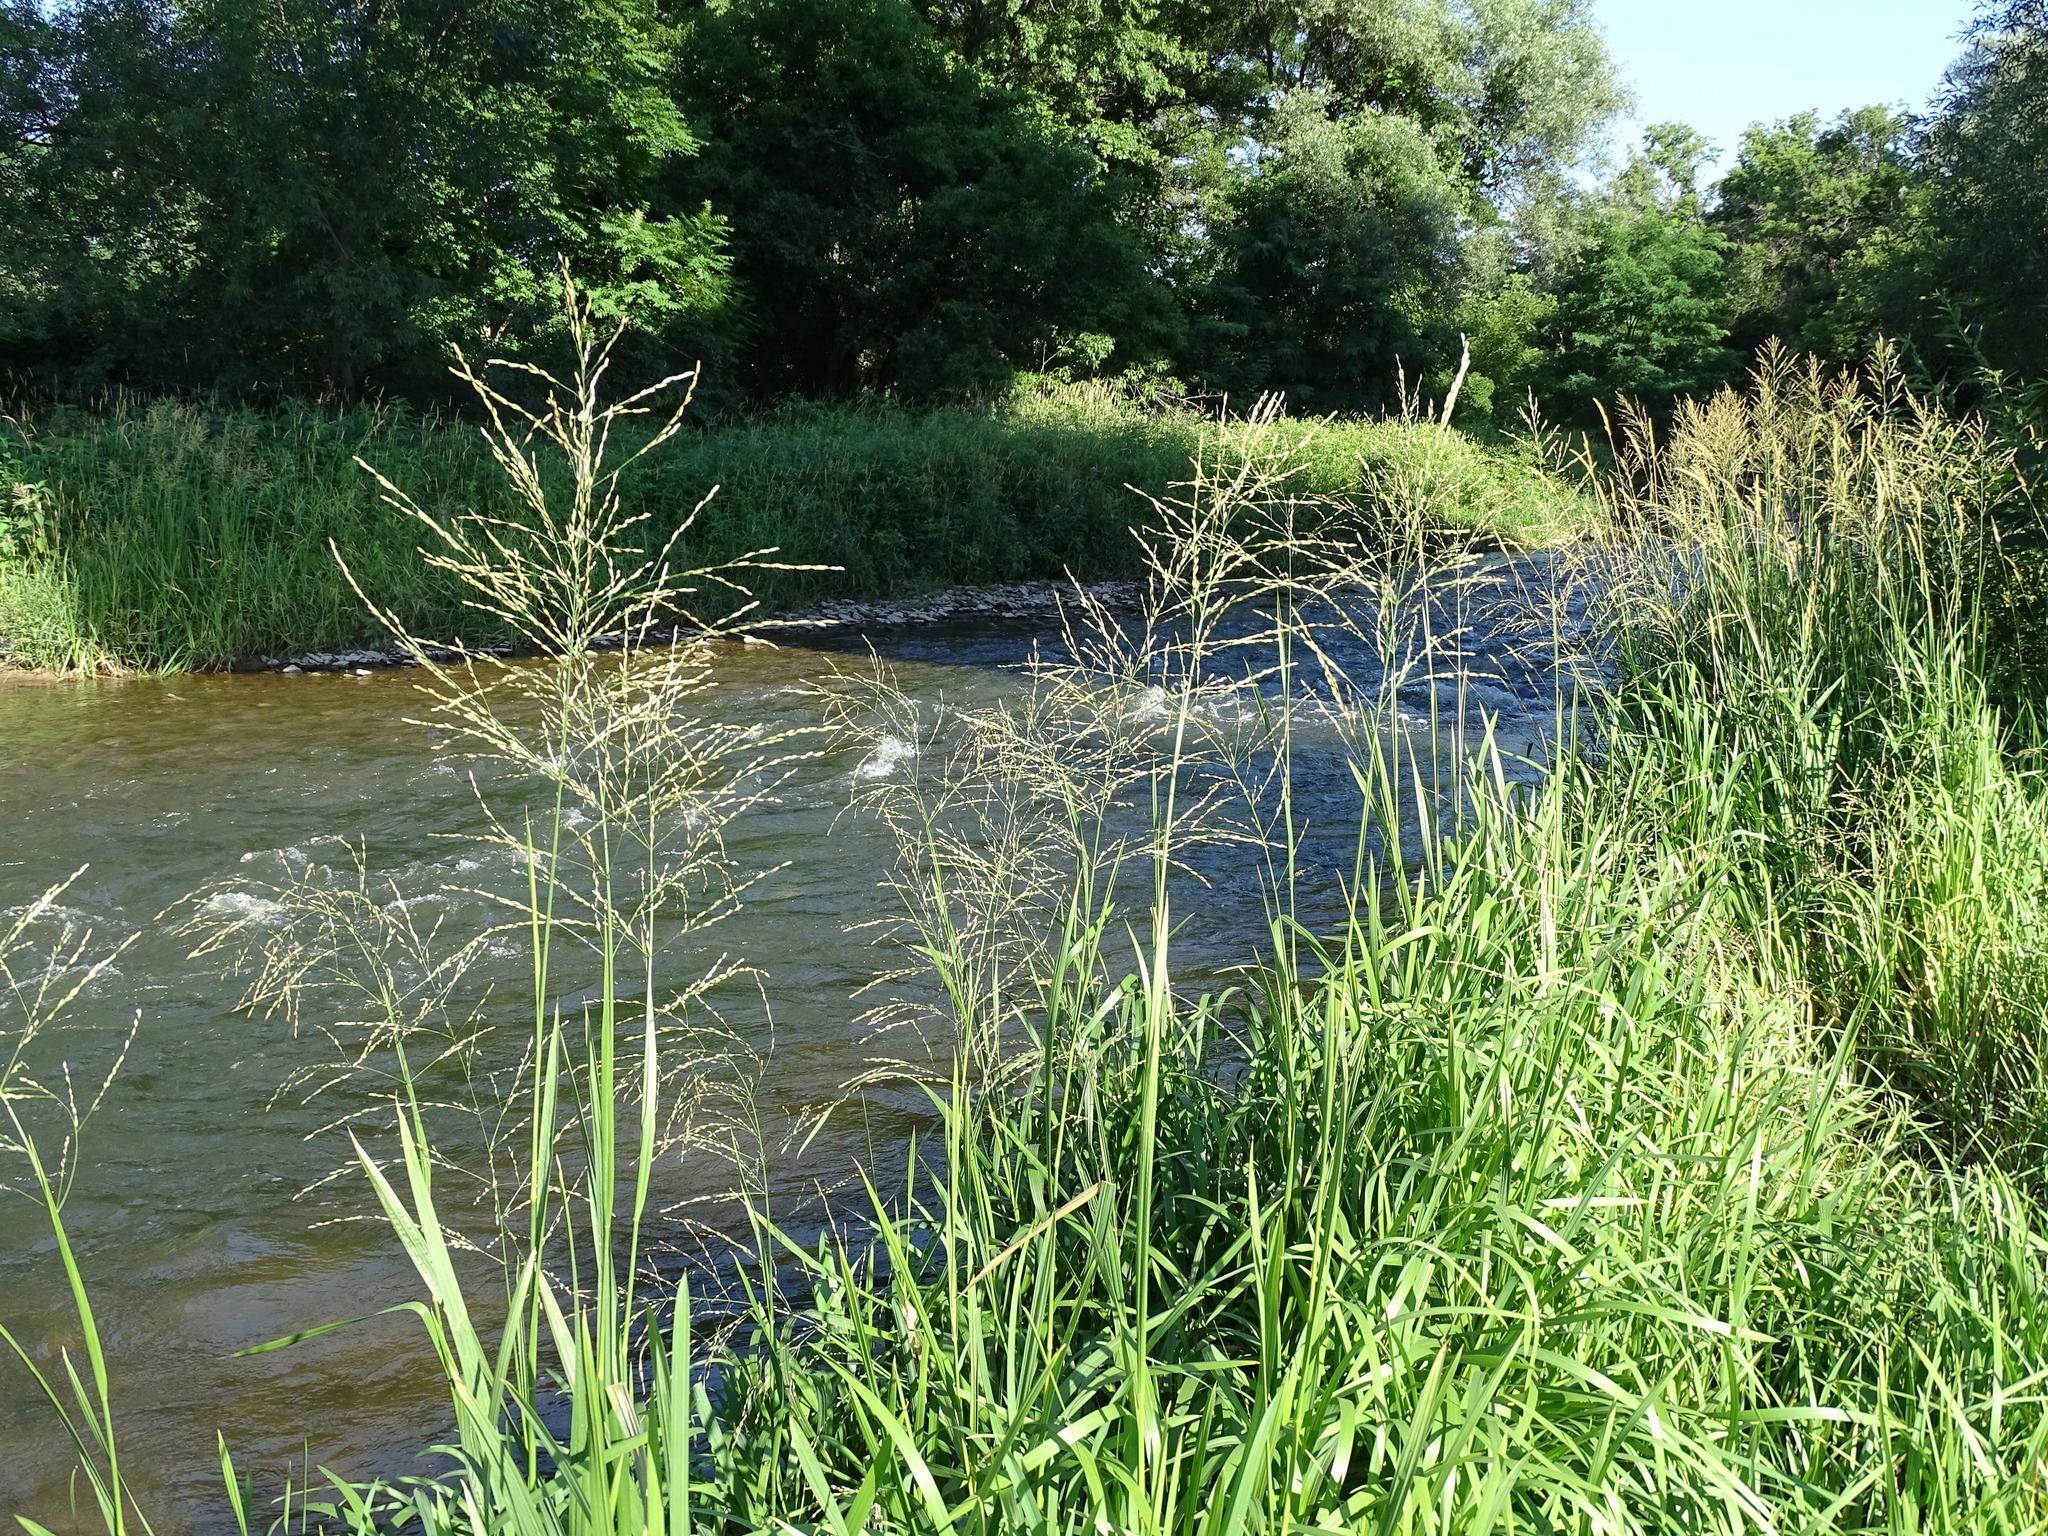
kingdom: Plantae
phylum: Tracheophyta
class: Liliopsida
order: Poales
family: Poaceae
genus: Glyceria
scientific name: Glyceria maxima
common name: Reed mannagrass
